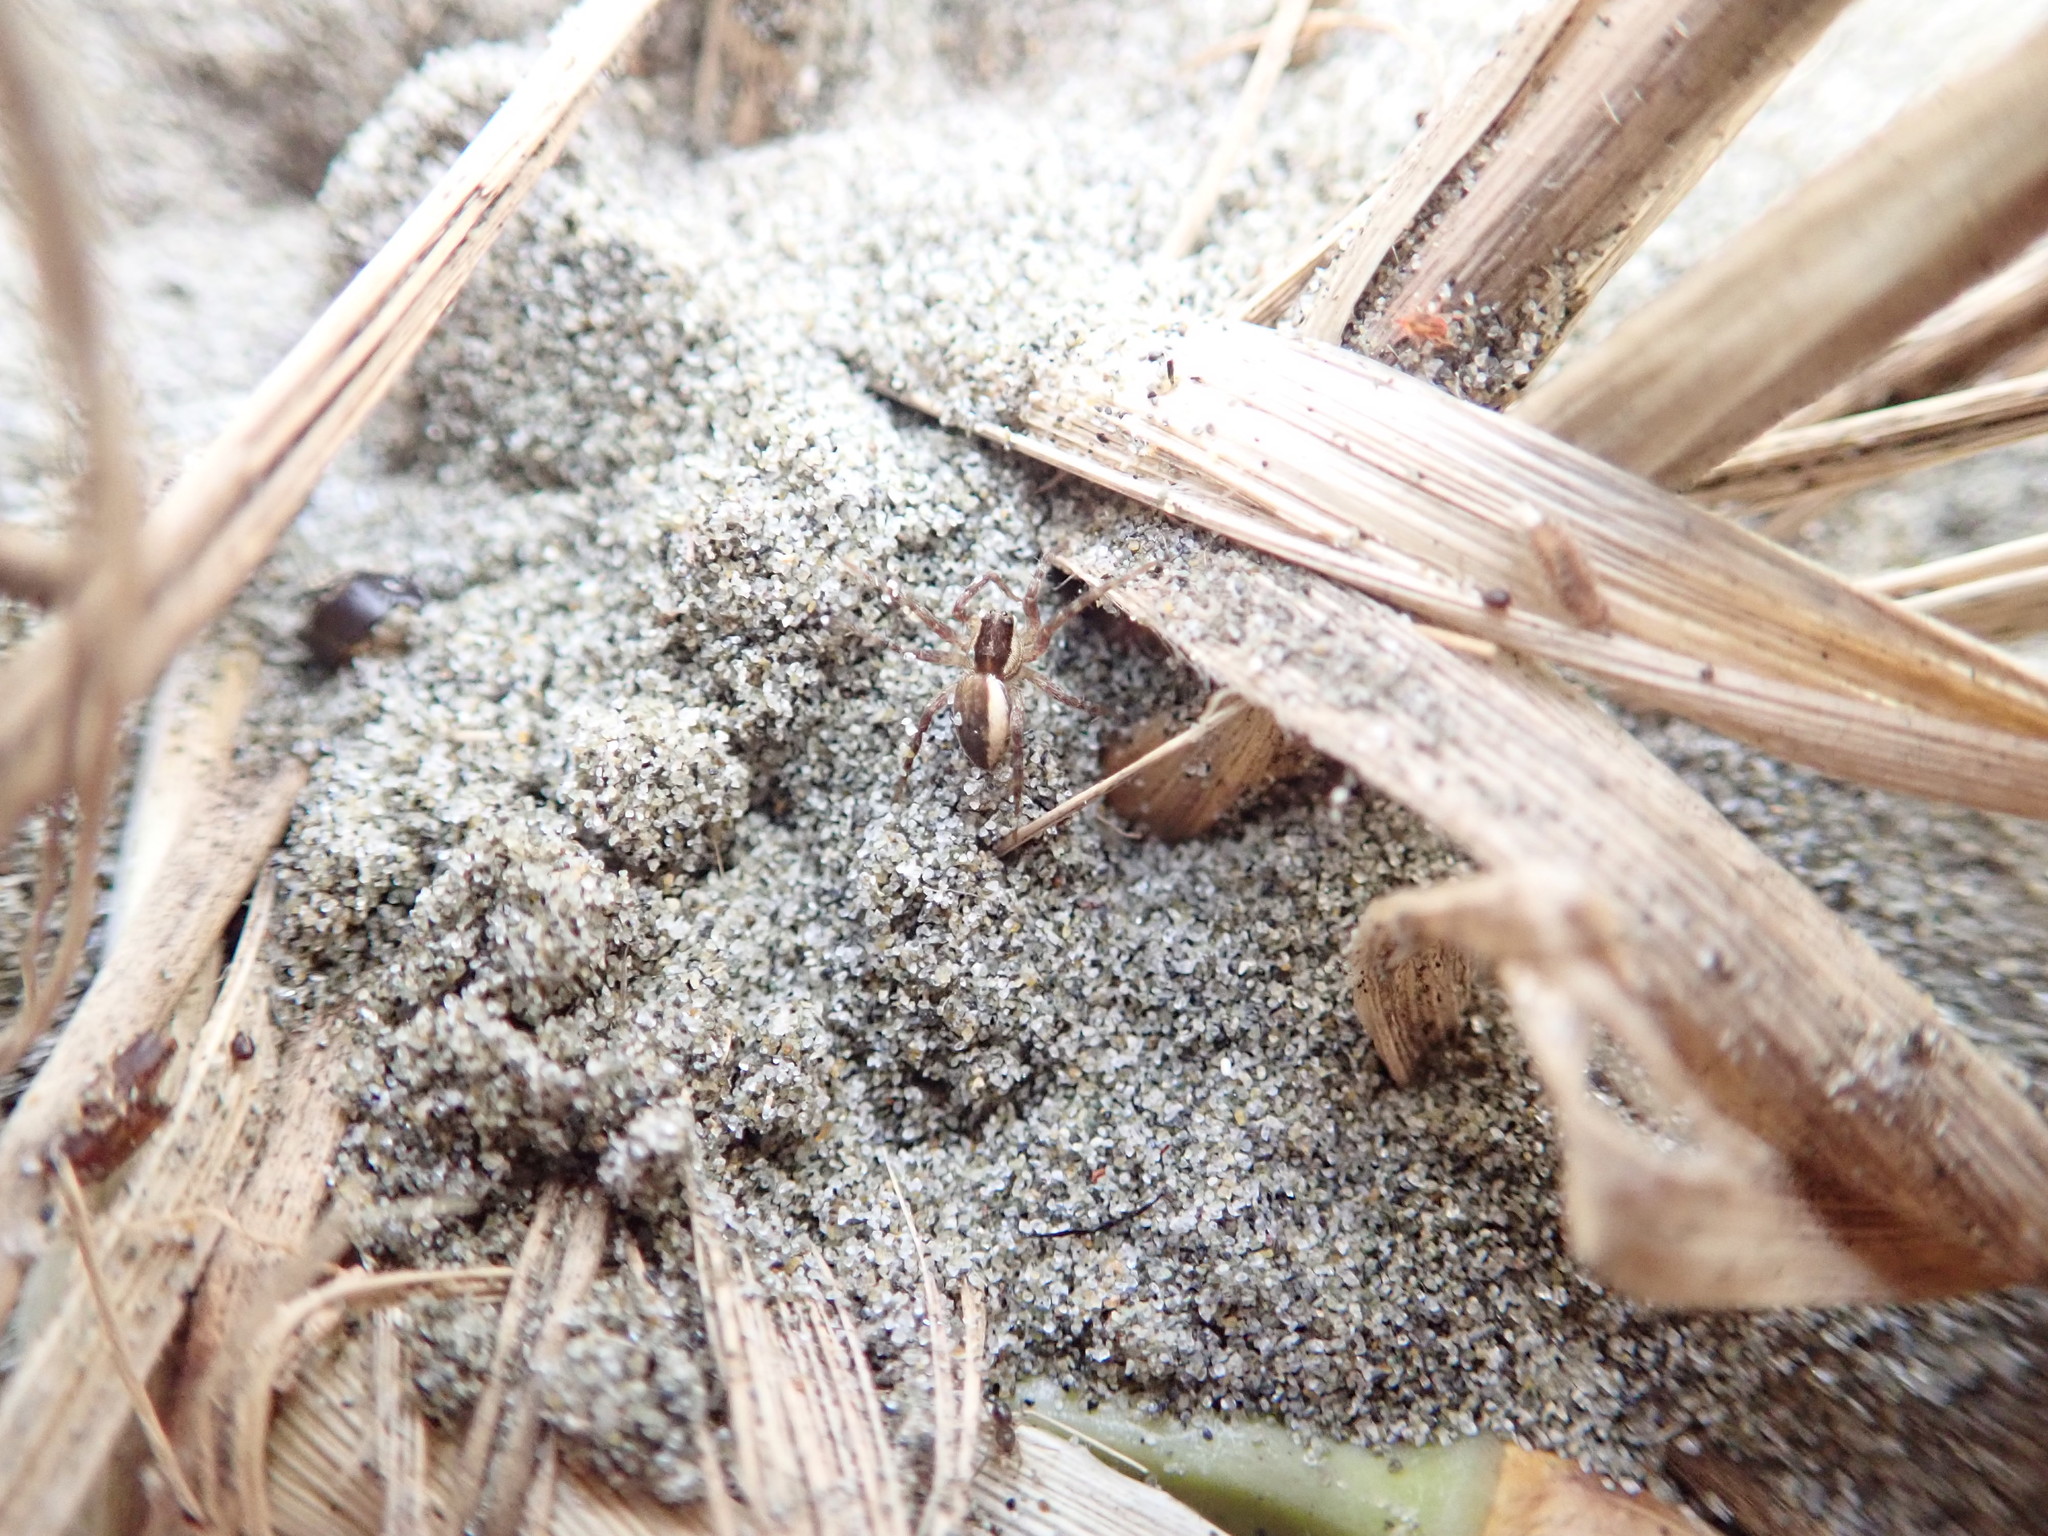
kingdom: Animalia
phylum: Arthropoda
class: Arachnida
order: Araneae
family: Oxyopidae
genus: Oxyopes
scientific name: Oxyopes gracilipes
